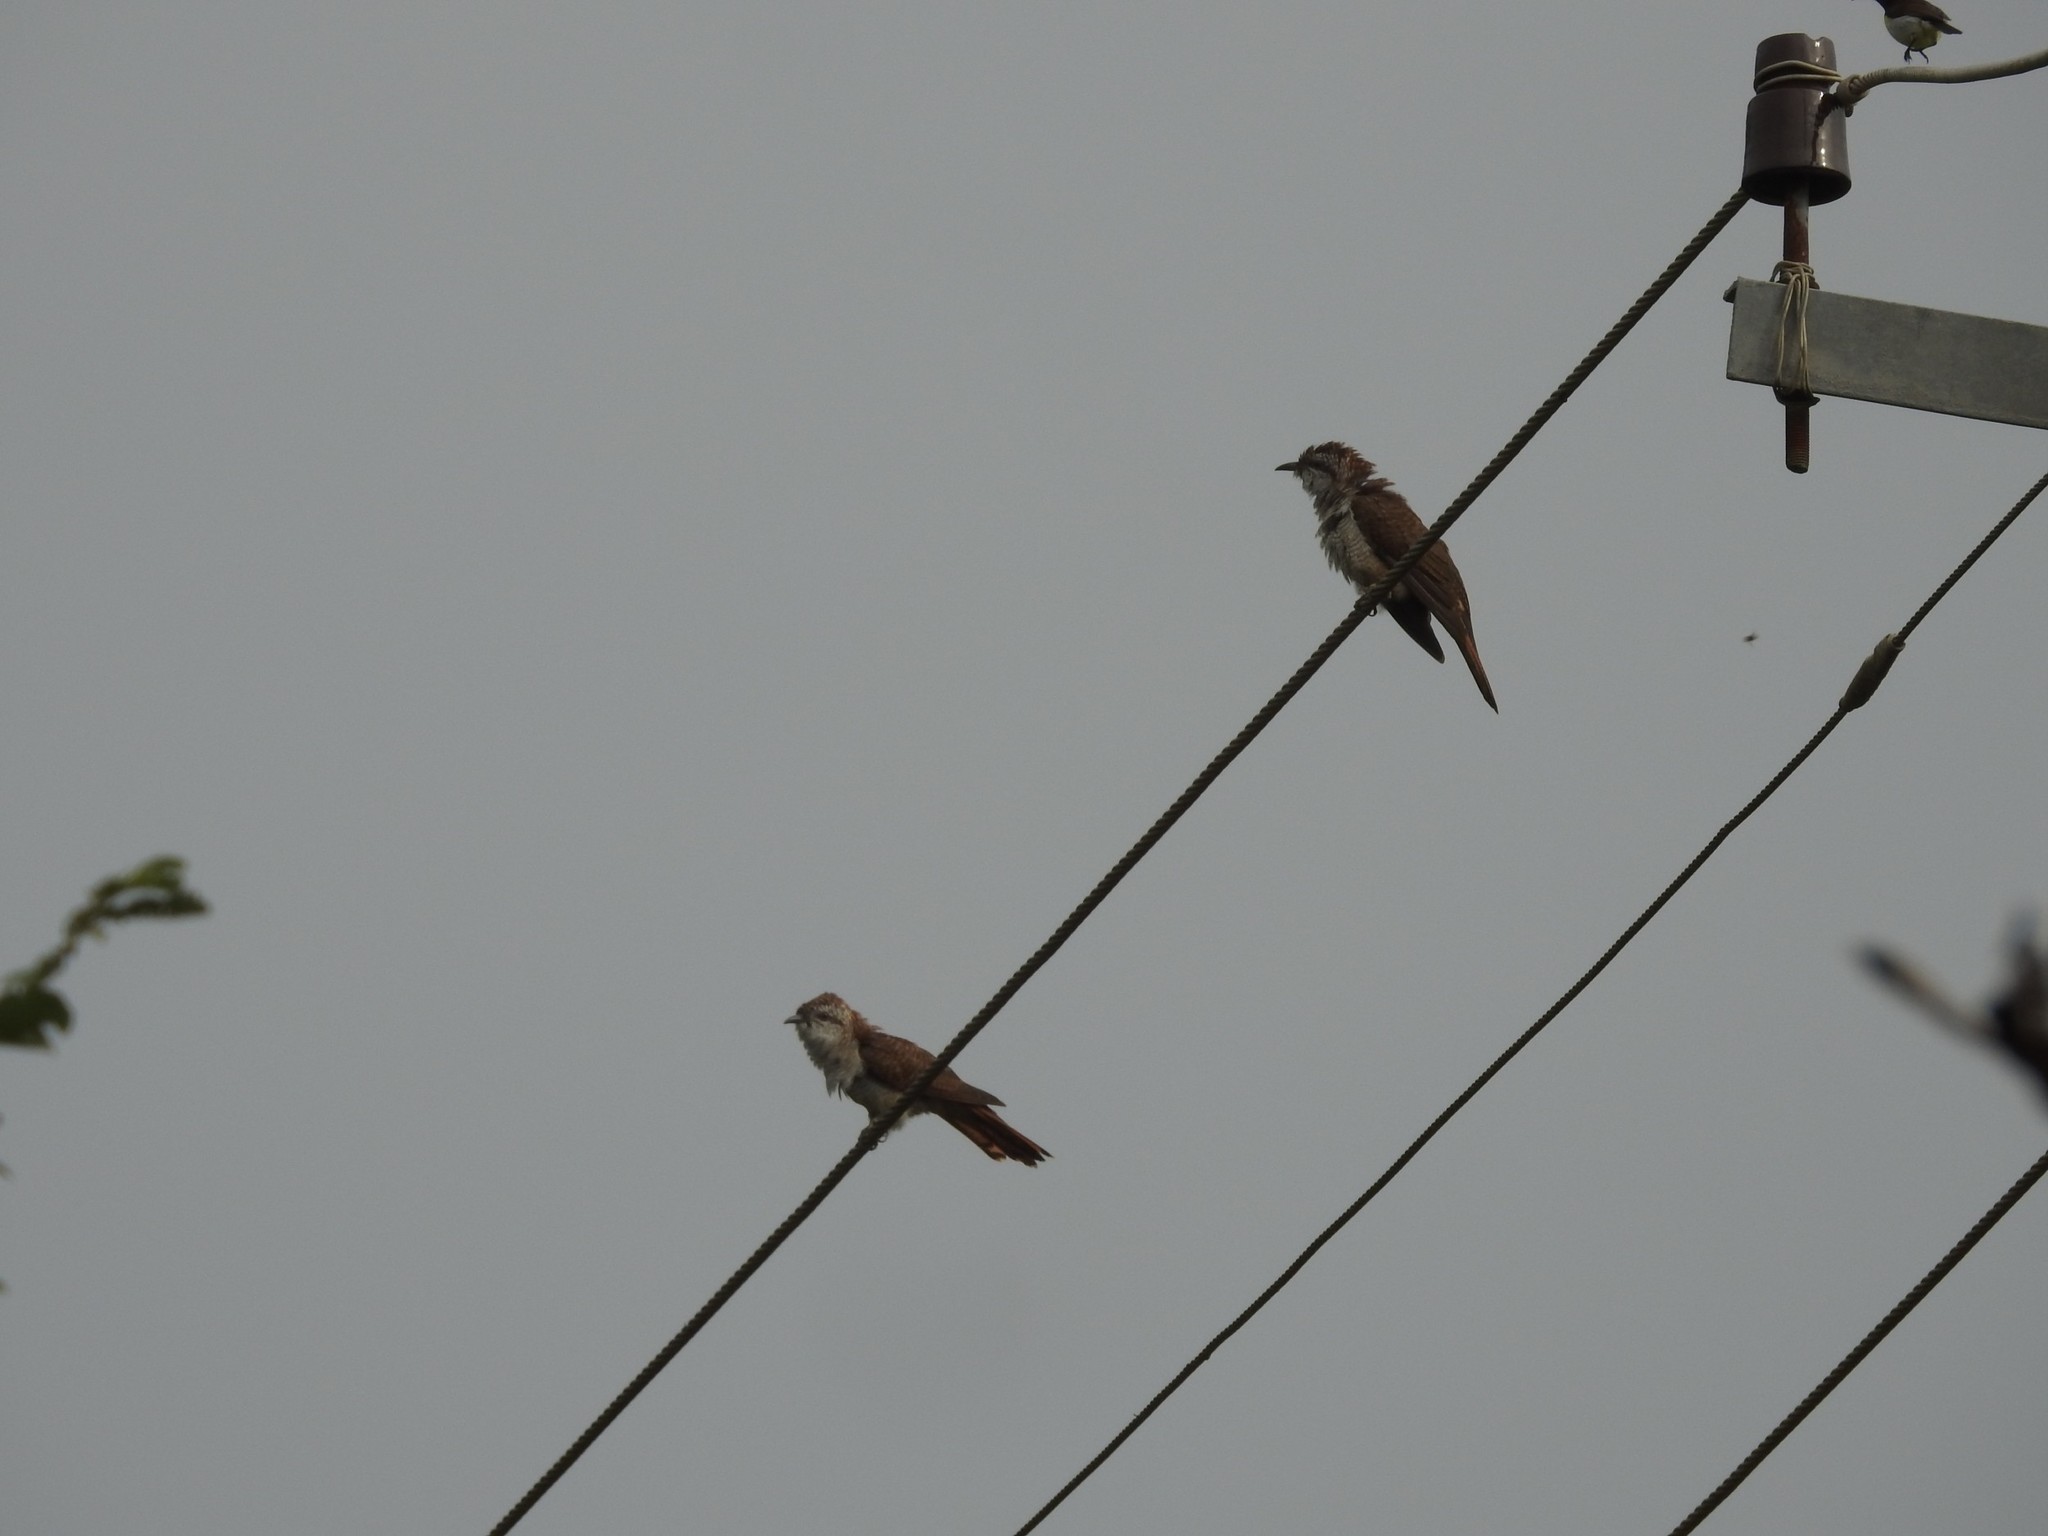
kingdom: Animalia
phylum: Chordata
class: Aves
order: Cuculiformes
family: Cuculidae
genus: Cacomantis
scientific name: Cacomantis sonneratii
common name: Banded bay cuckoo
